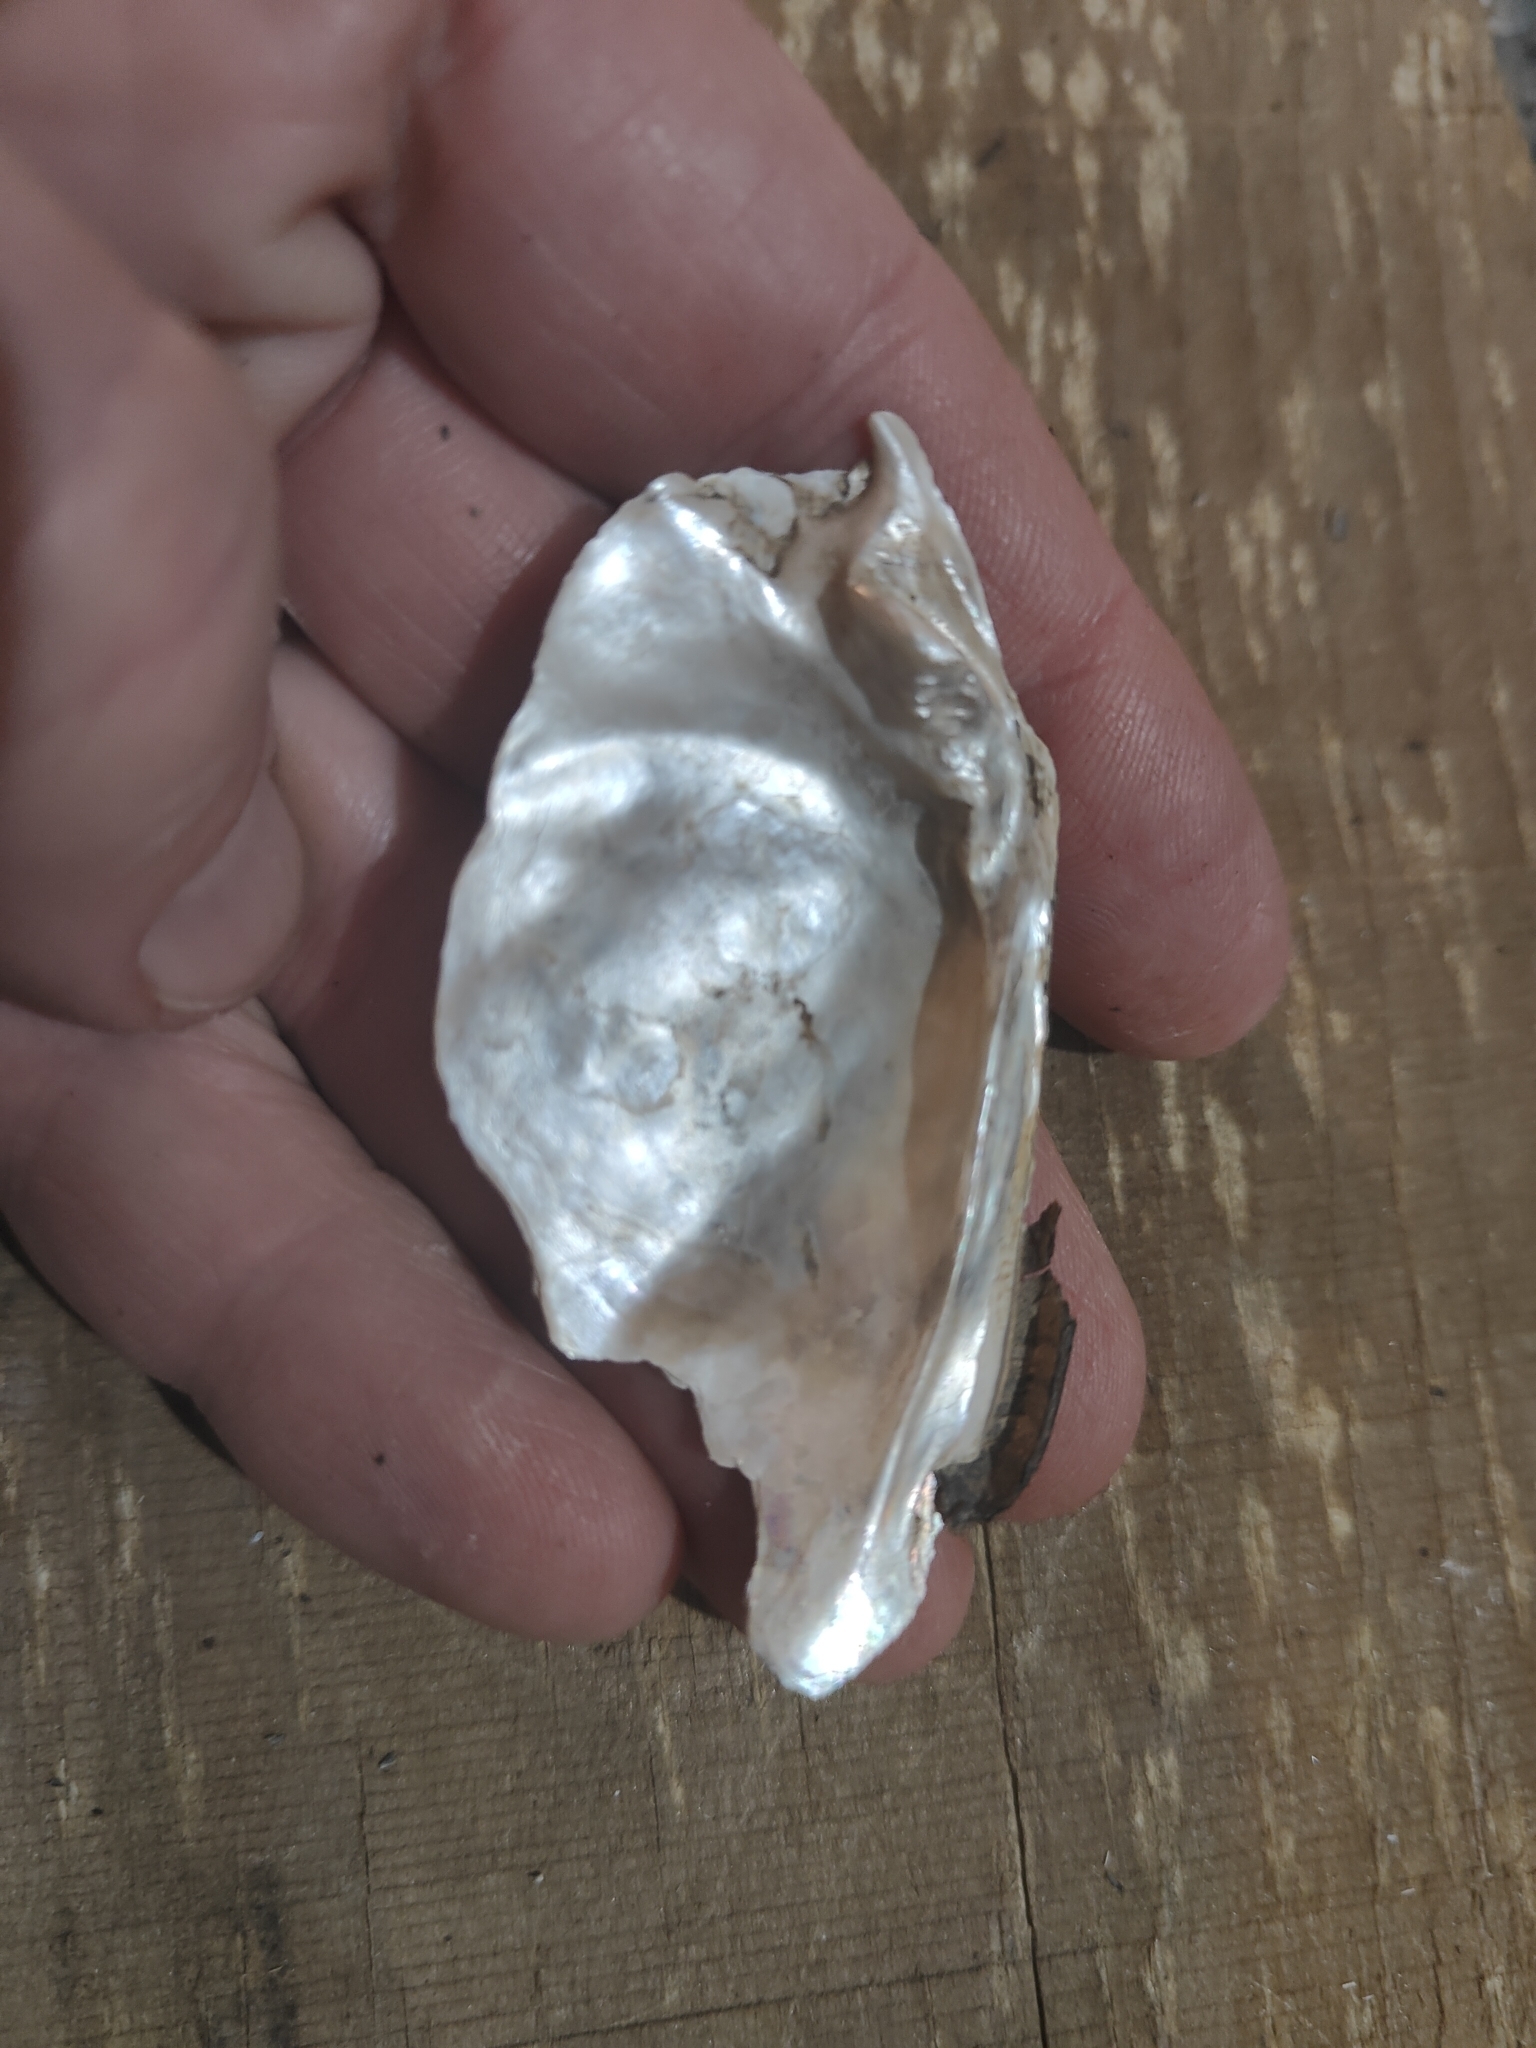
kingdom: Animalia
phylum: Mollusca
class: Bivalvia
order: Unionida
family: Unionidae
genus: Lasmigona
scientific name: Lasmigona complanata
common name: White heelsplitter
